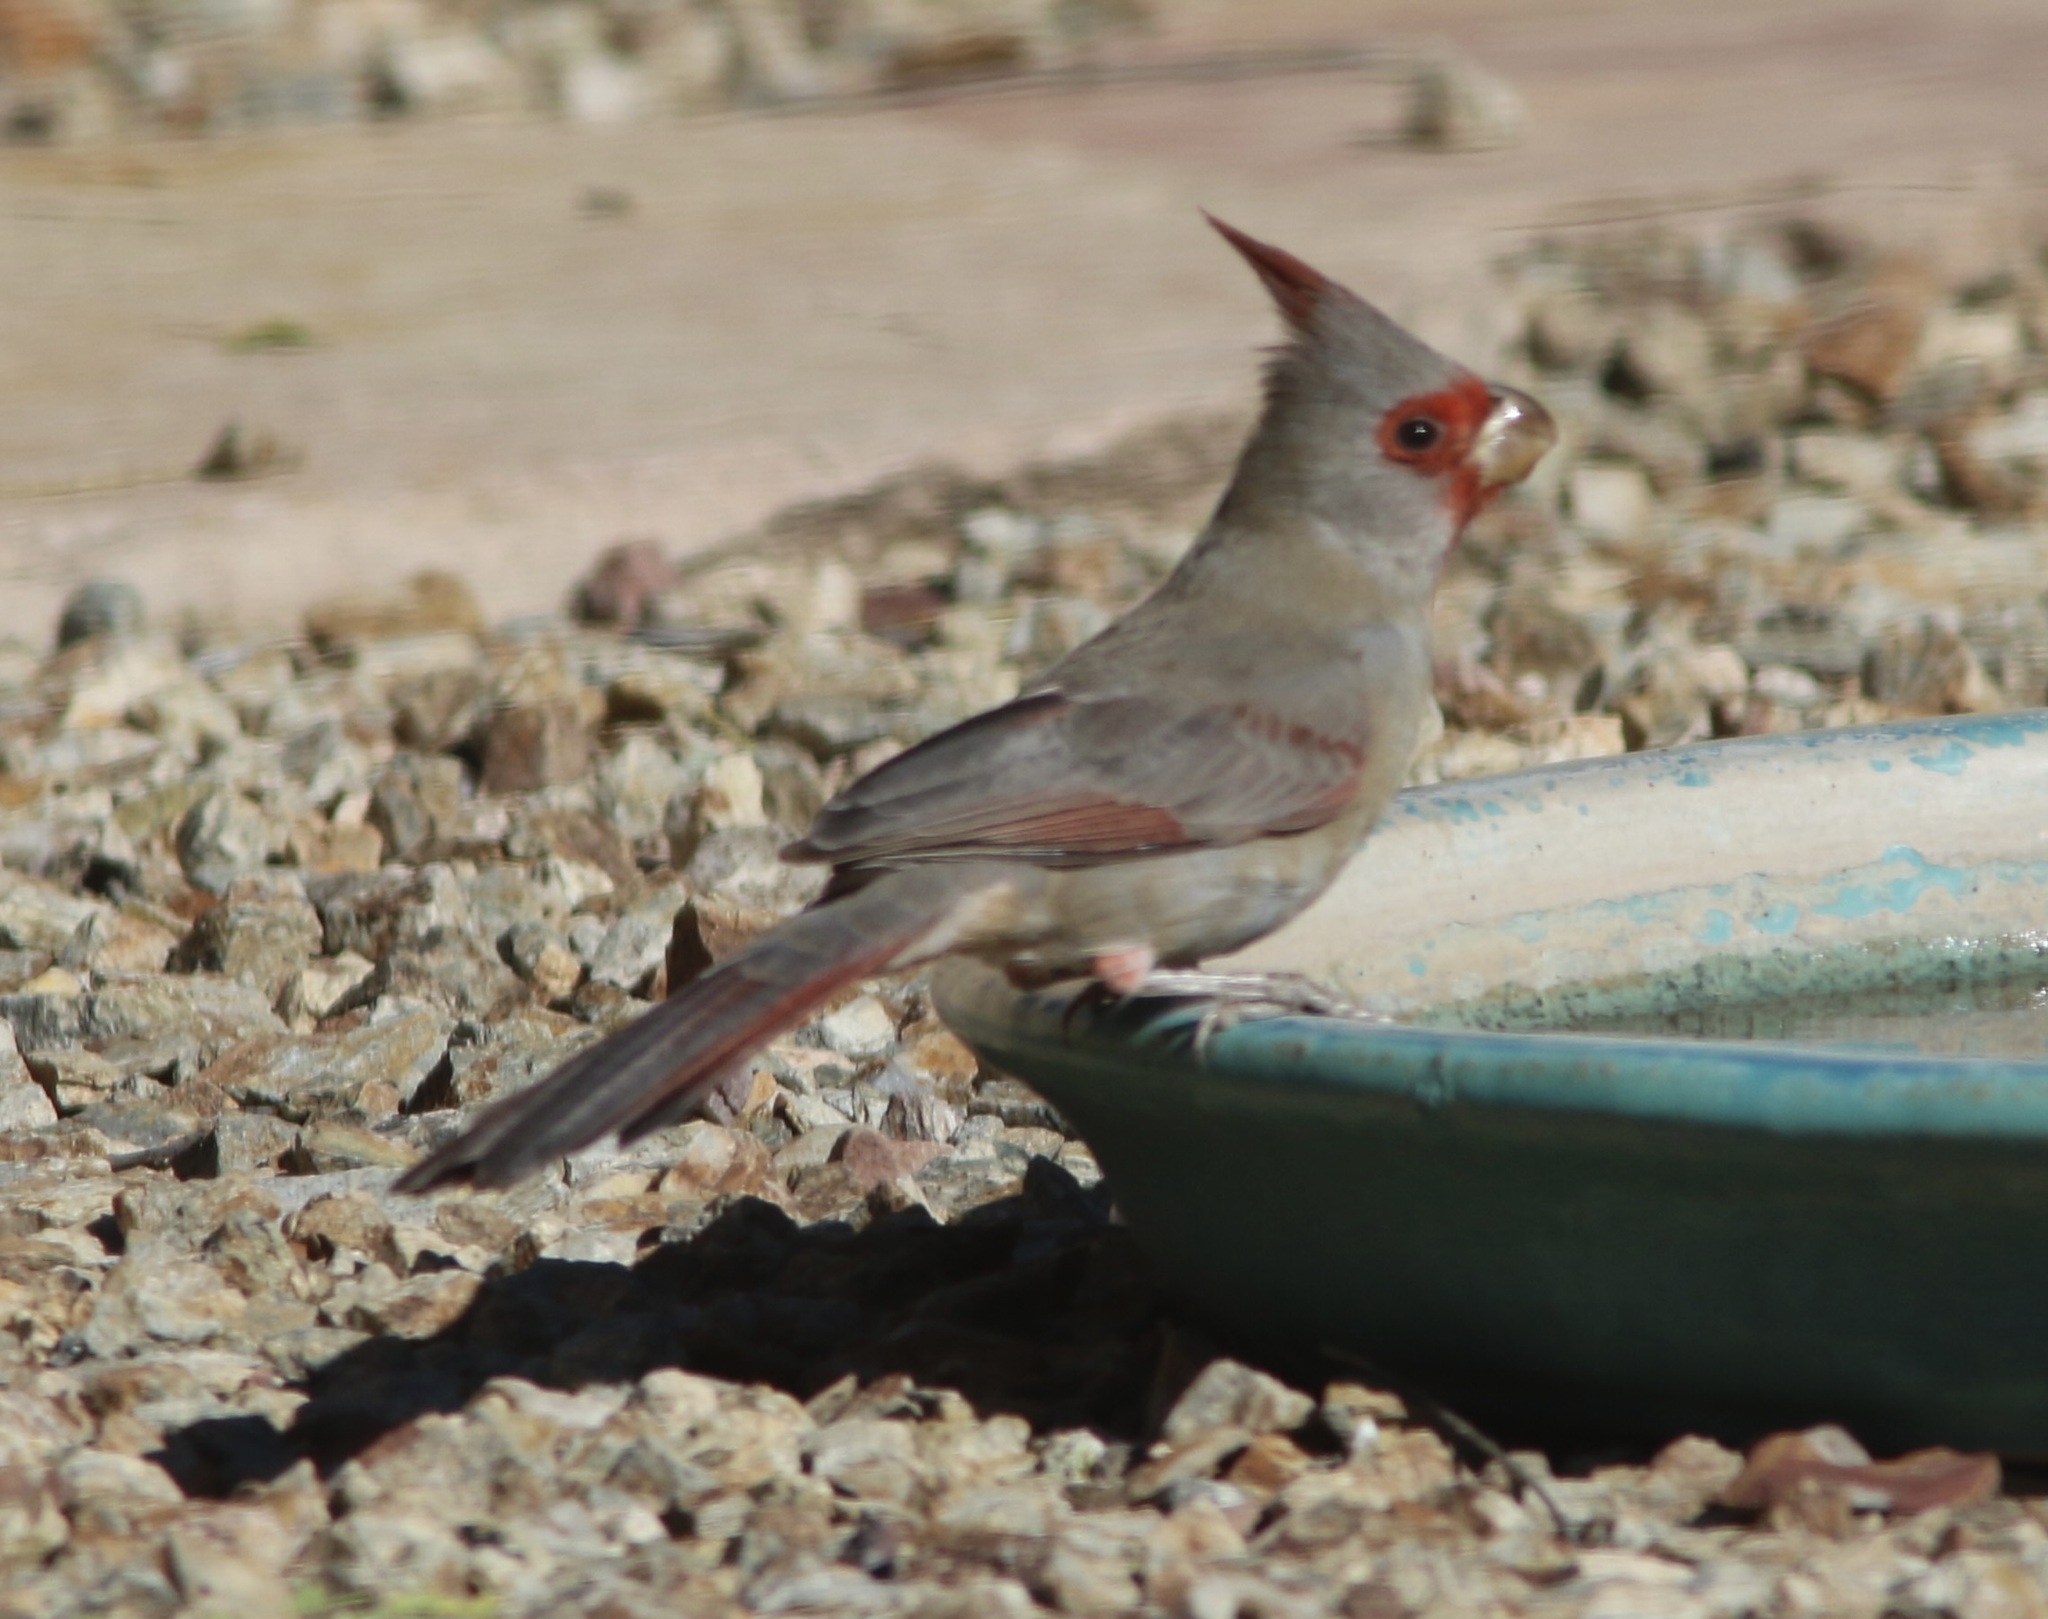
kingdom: Animalia
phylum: Chordata
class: Aves
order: Passeriformes
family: Cardinalidae
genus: Cardinalis
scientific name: Cardinalis sinuatus
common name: Pyrrhuloxia
